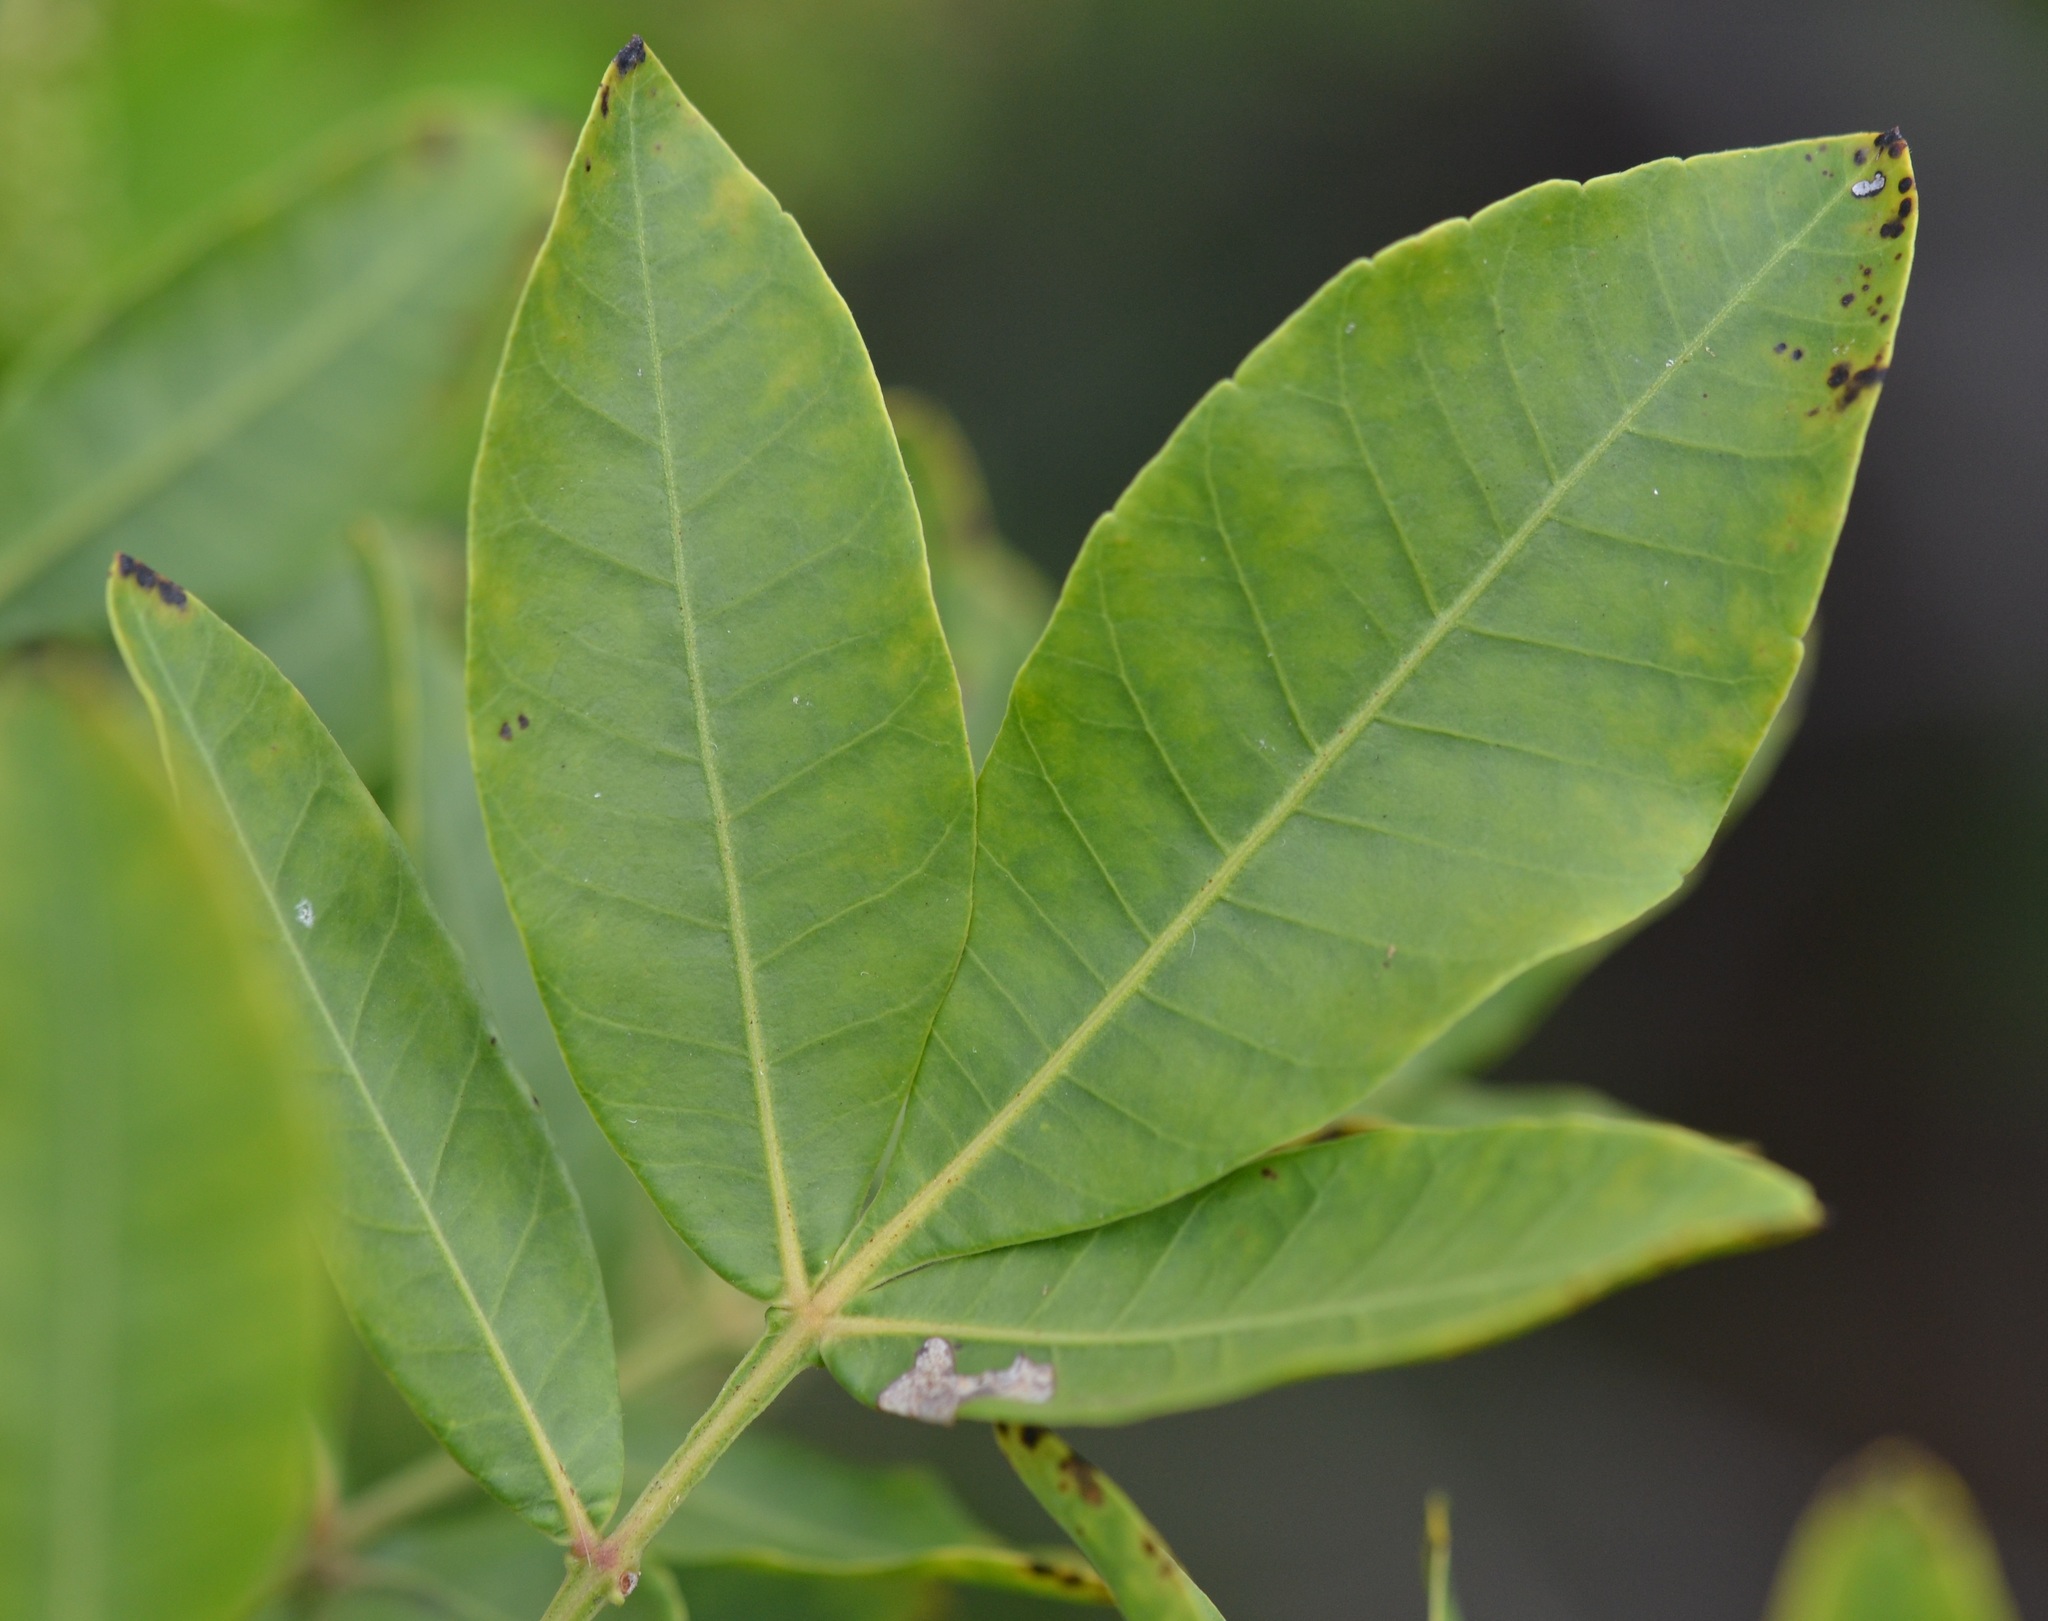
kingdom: Plantae
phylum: Tracheophyta
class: Magnoliopsida
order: Sapindales
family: Anacardiaceae
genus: Schinus
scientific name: Schinus terebinthifolia
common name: Brazilian peppertree
